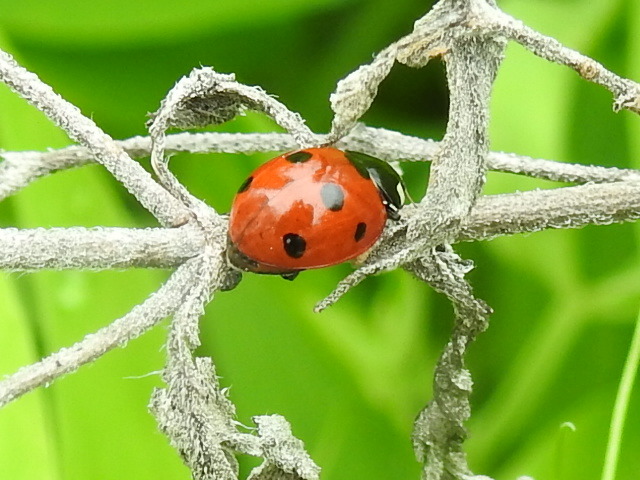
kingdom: Animalia
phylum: Arthropoda
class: Insecta
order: Coleoptera
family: Coccinellidae
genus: Coccinella
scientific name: Coccinella septempunctata
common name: Sevenspotted lady beetle
